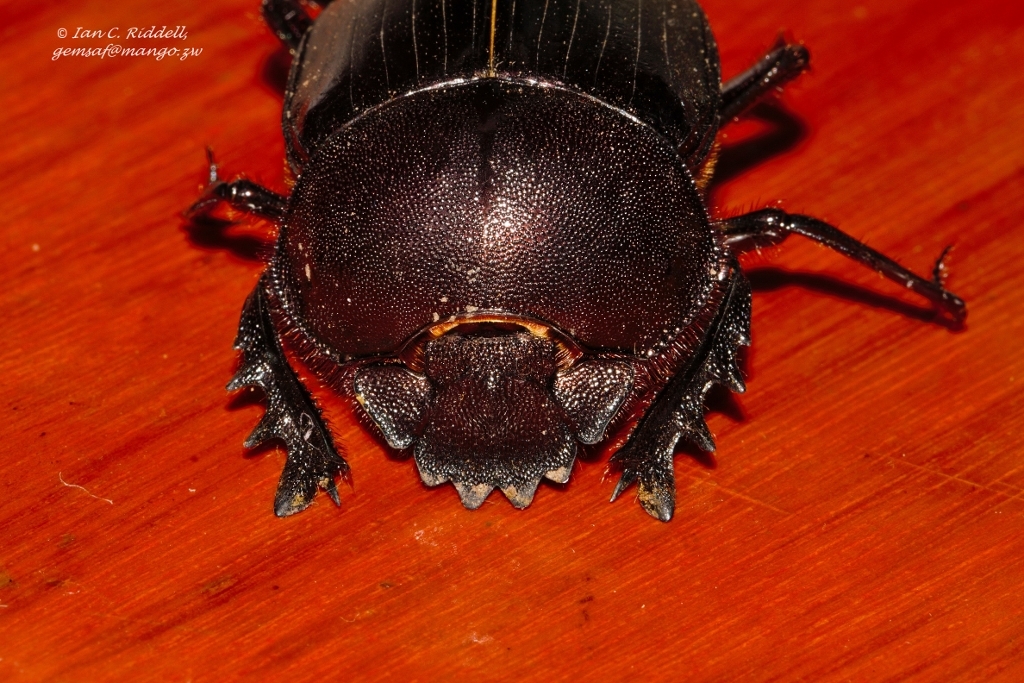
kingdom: Animalia
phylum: Arthropoda
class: Insecta
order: Coleoptera
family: Scarabaeidae
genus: Kheper
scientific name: Kheper cupreus
